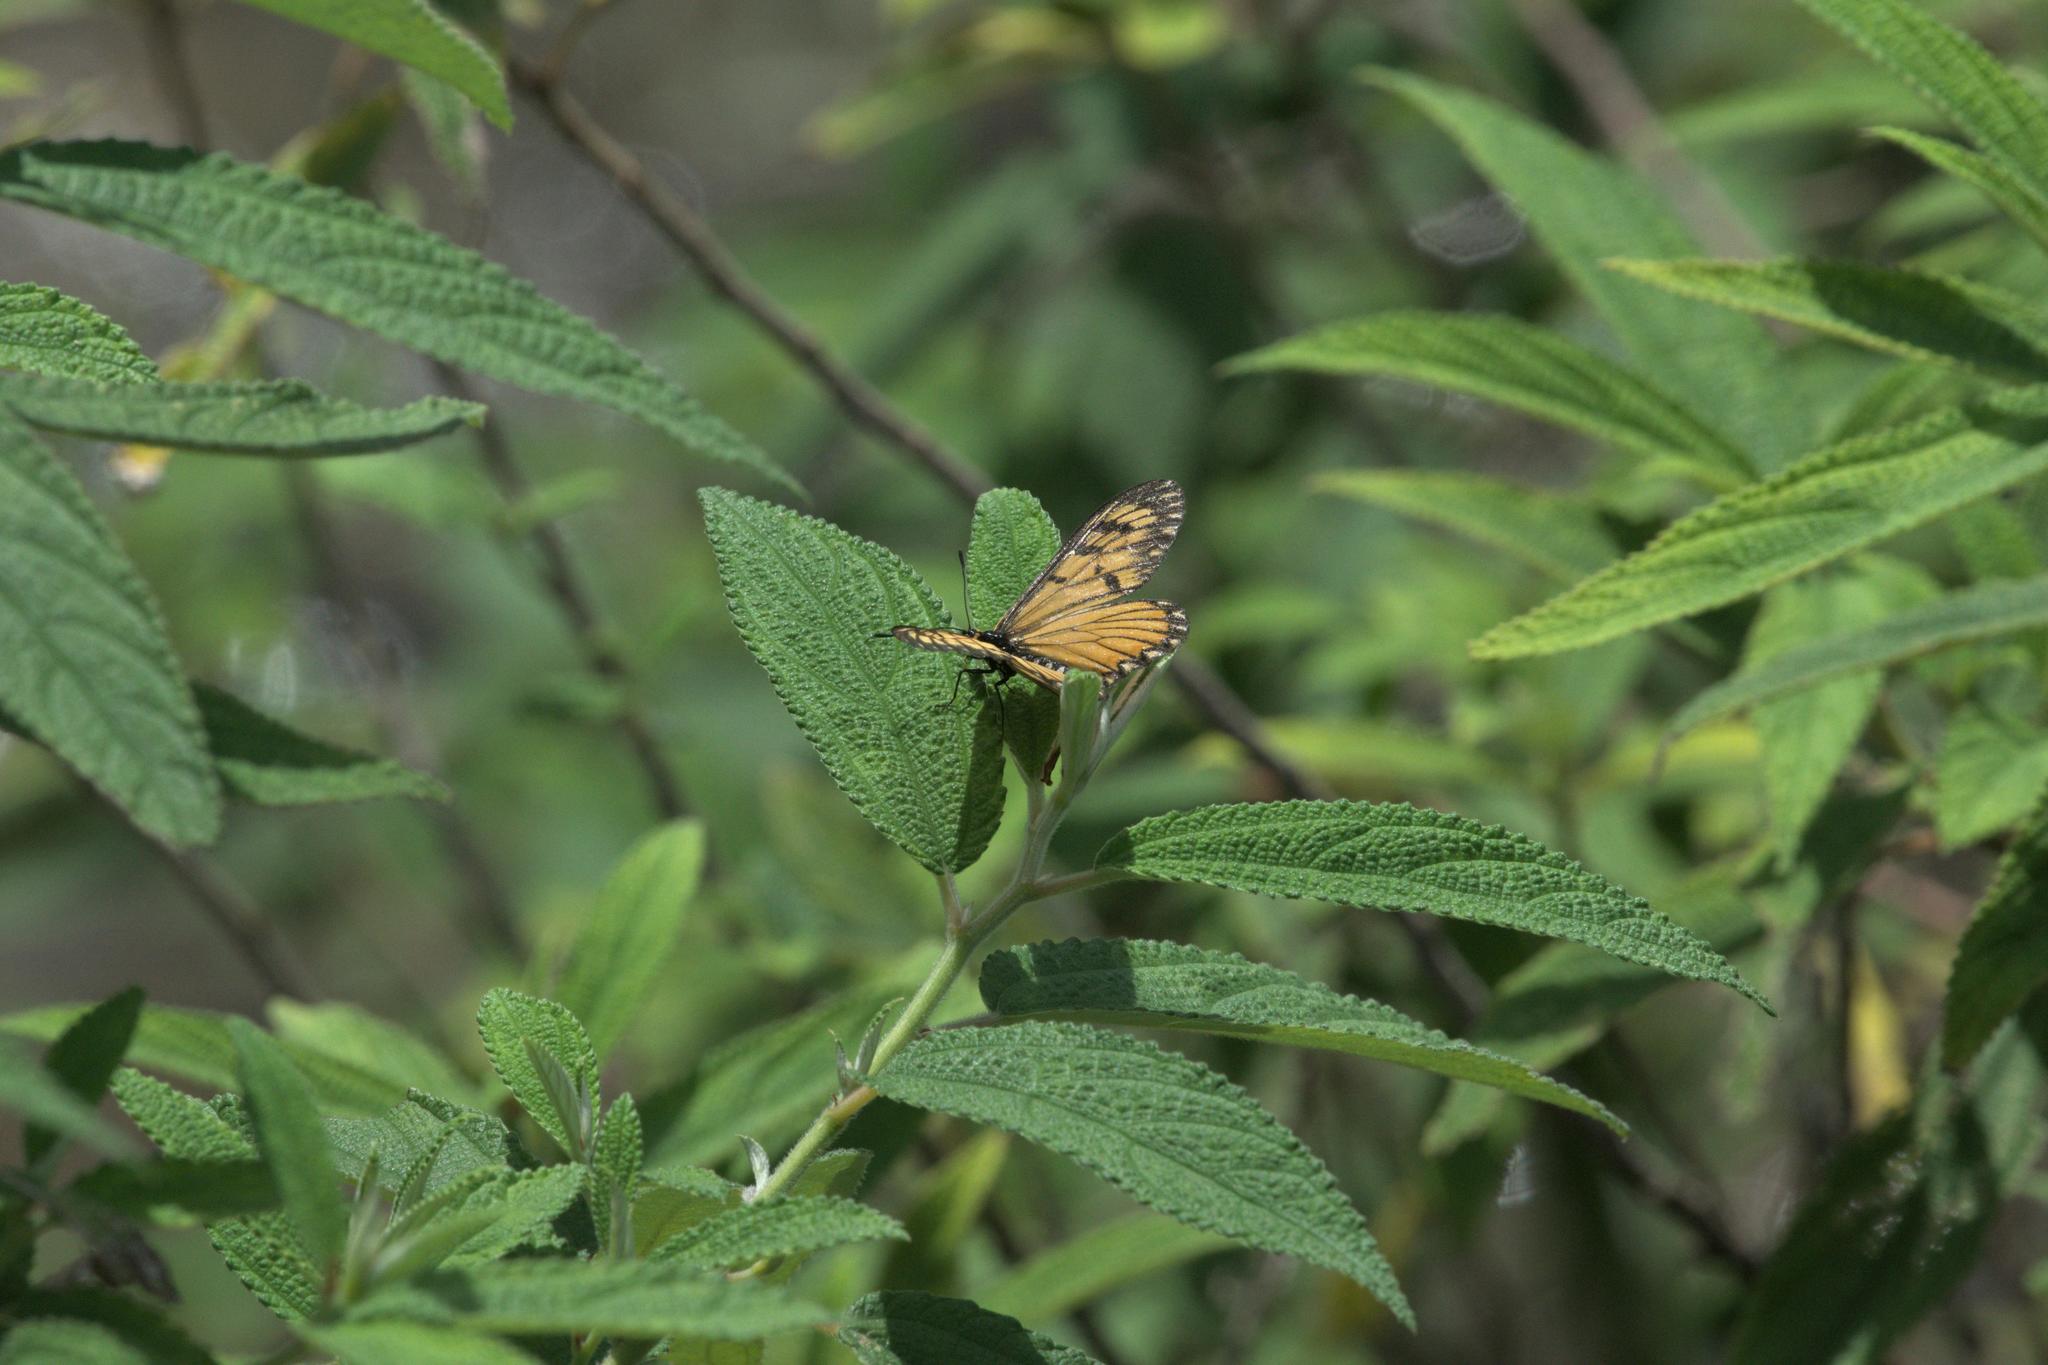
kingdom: Animalia
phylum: Arthropoda
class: Insecta
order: Lepidoptera
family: Nymphalidae
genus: Acraea
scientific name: Acraea Telchinia issoria
